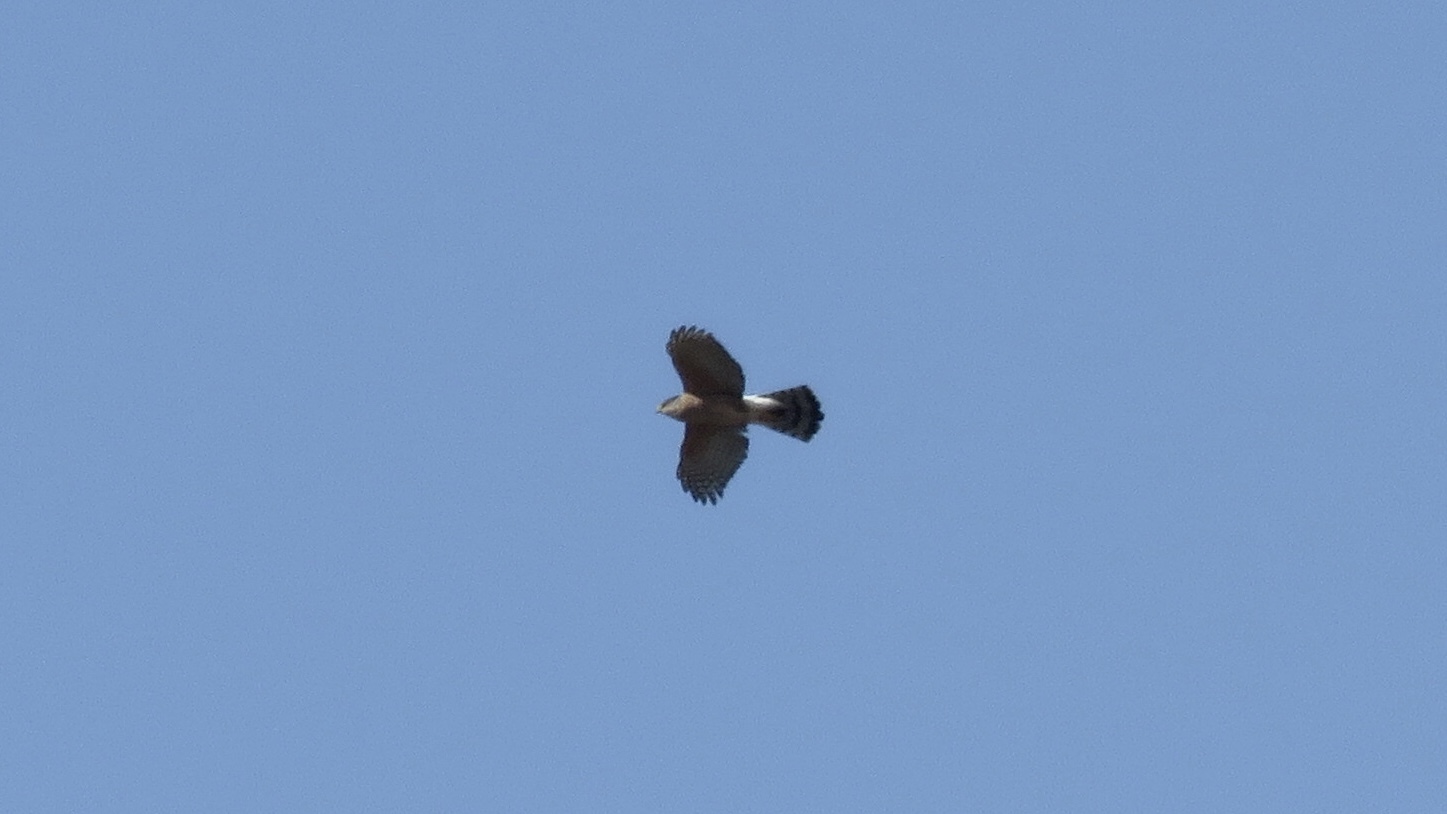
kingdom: Animalia
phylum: Chordata
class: Aves
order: Accipitriformes
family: Accipitridae
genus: Accipiter
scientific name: Accipiter cooperii
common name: Cooper's hawk
